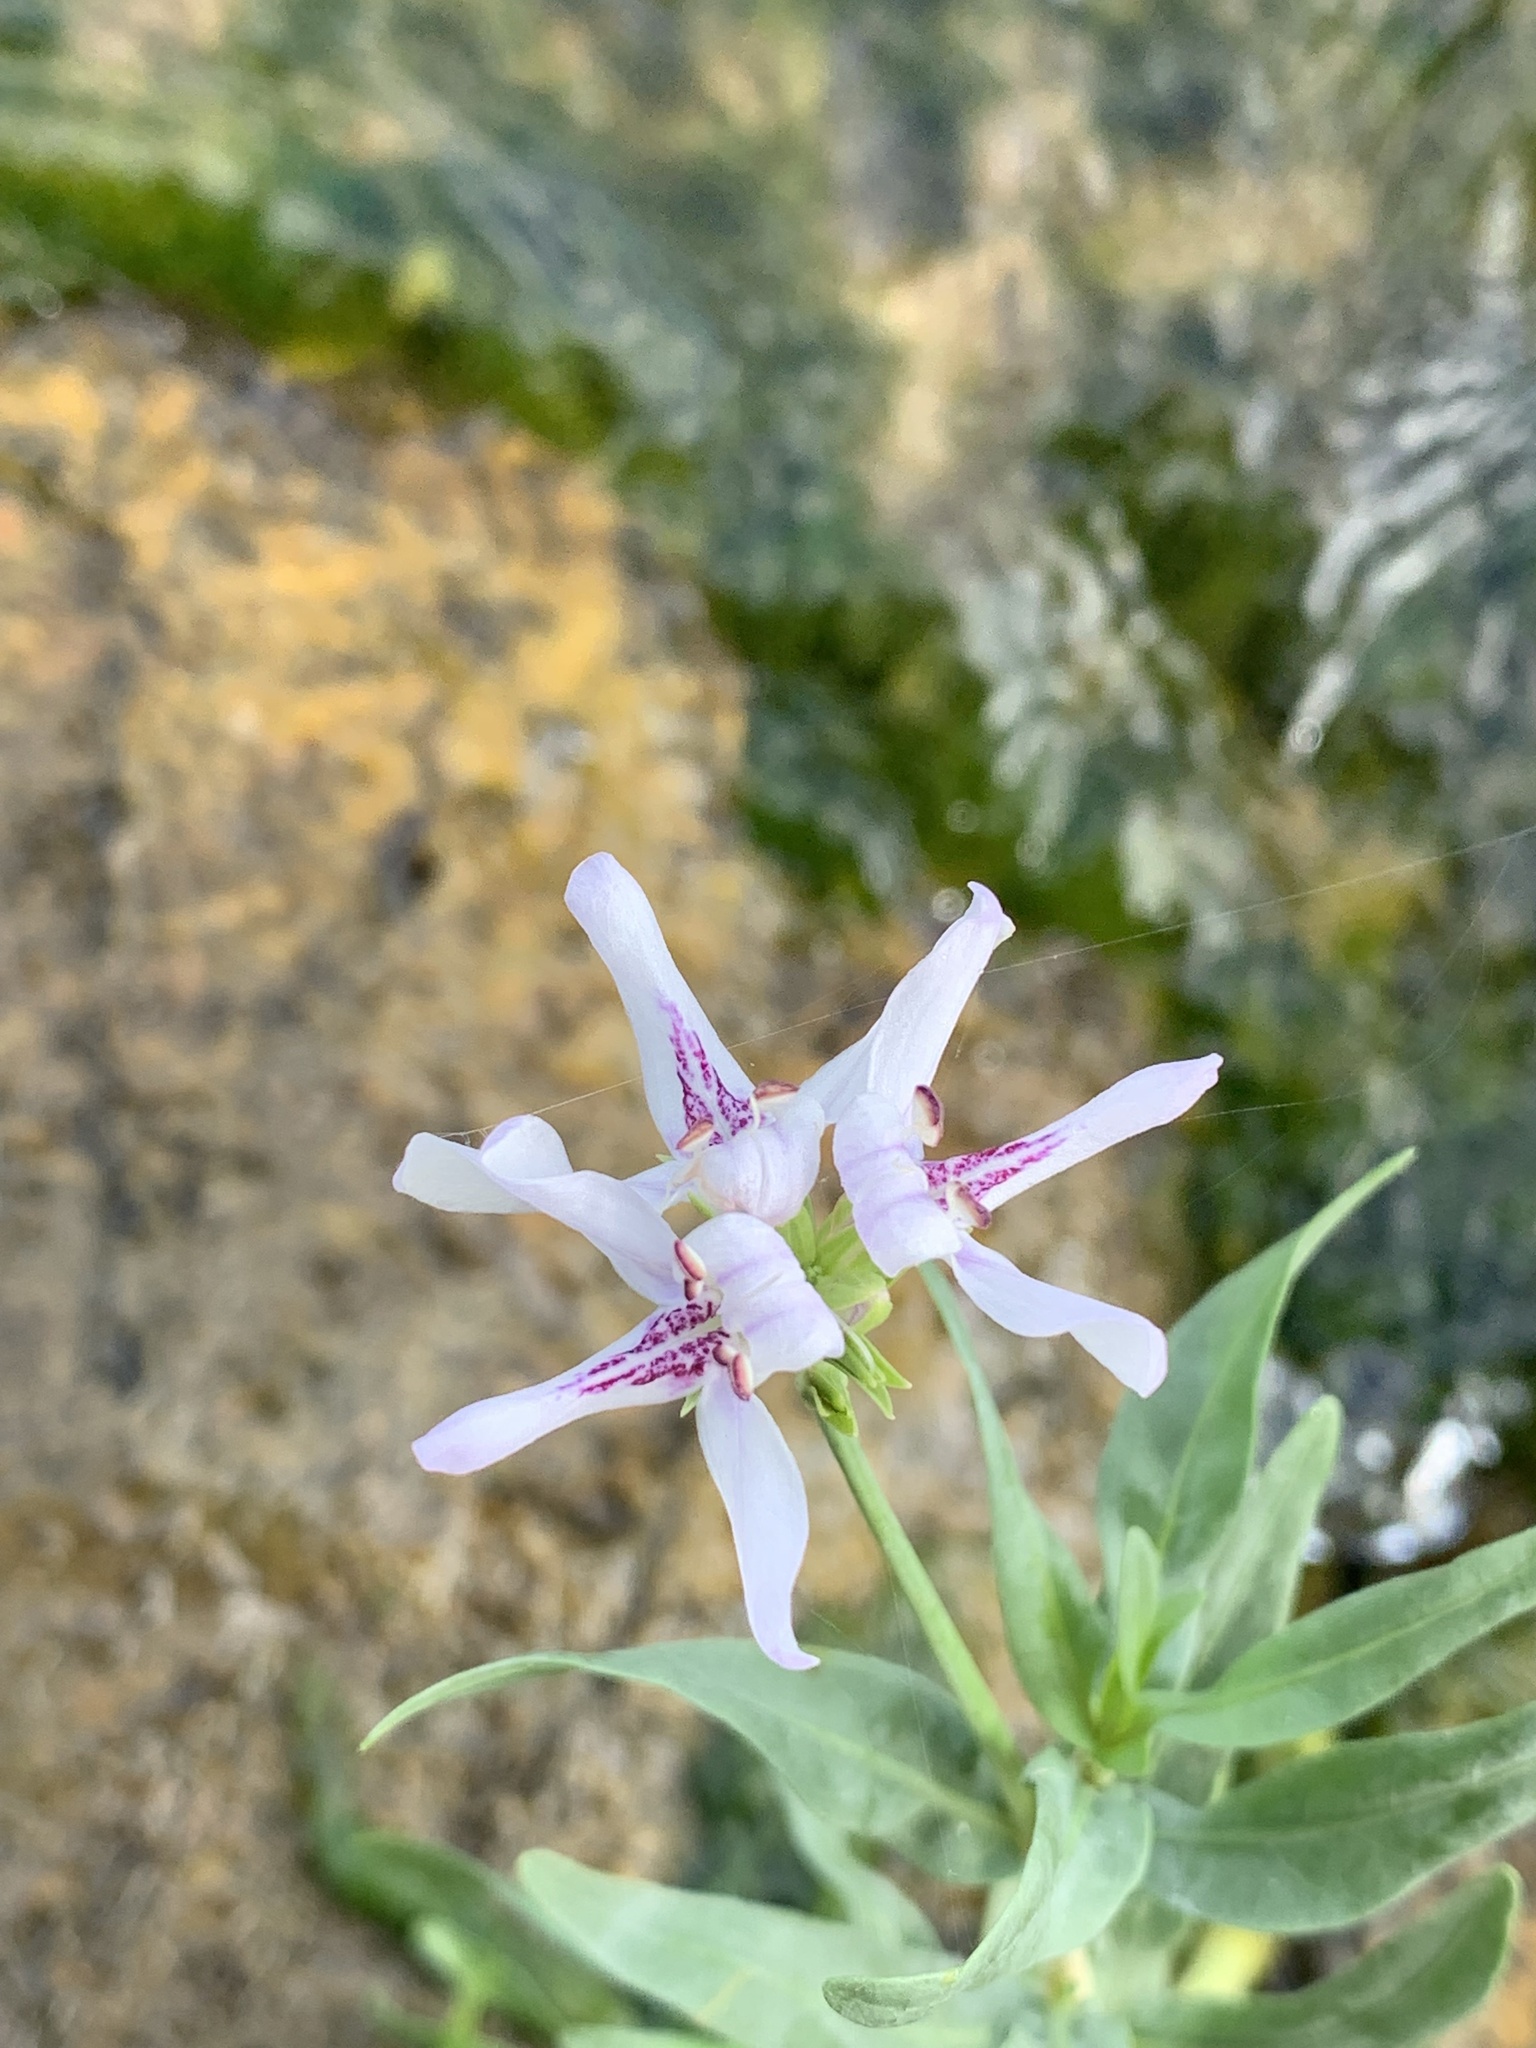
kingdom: Plantae
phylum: Tracheophyta
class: Magnoliopsida
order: Lamiales
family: Acanthaceae
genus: Dianthera
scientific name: Dianthera americana
